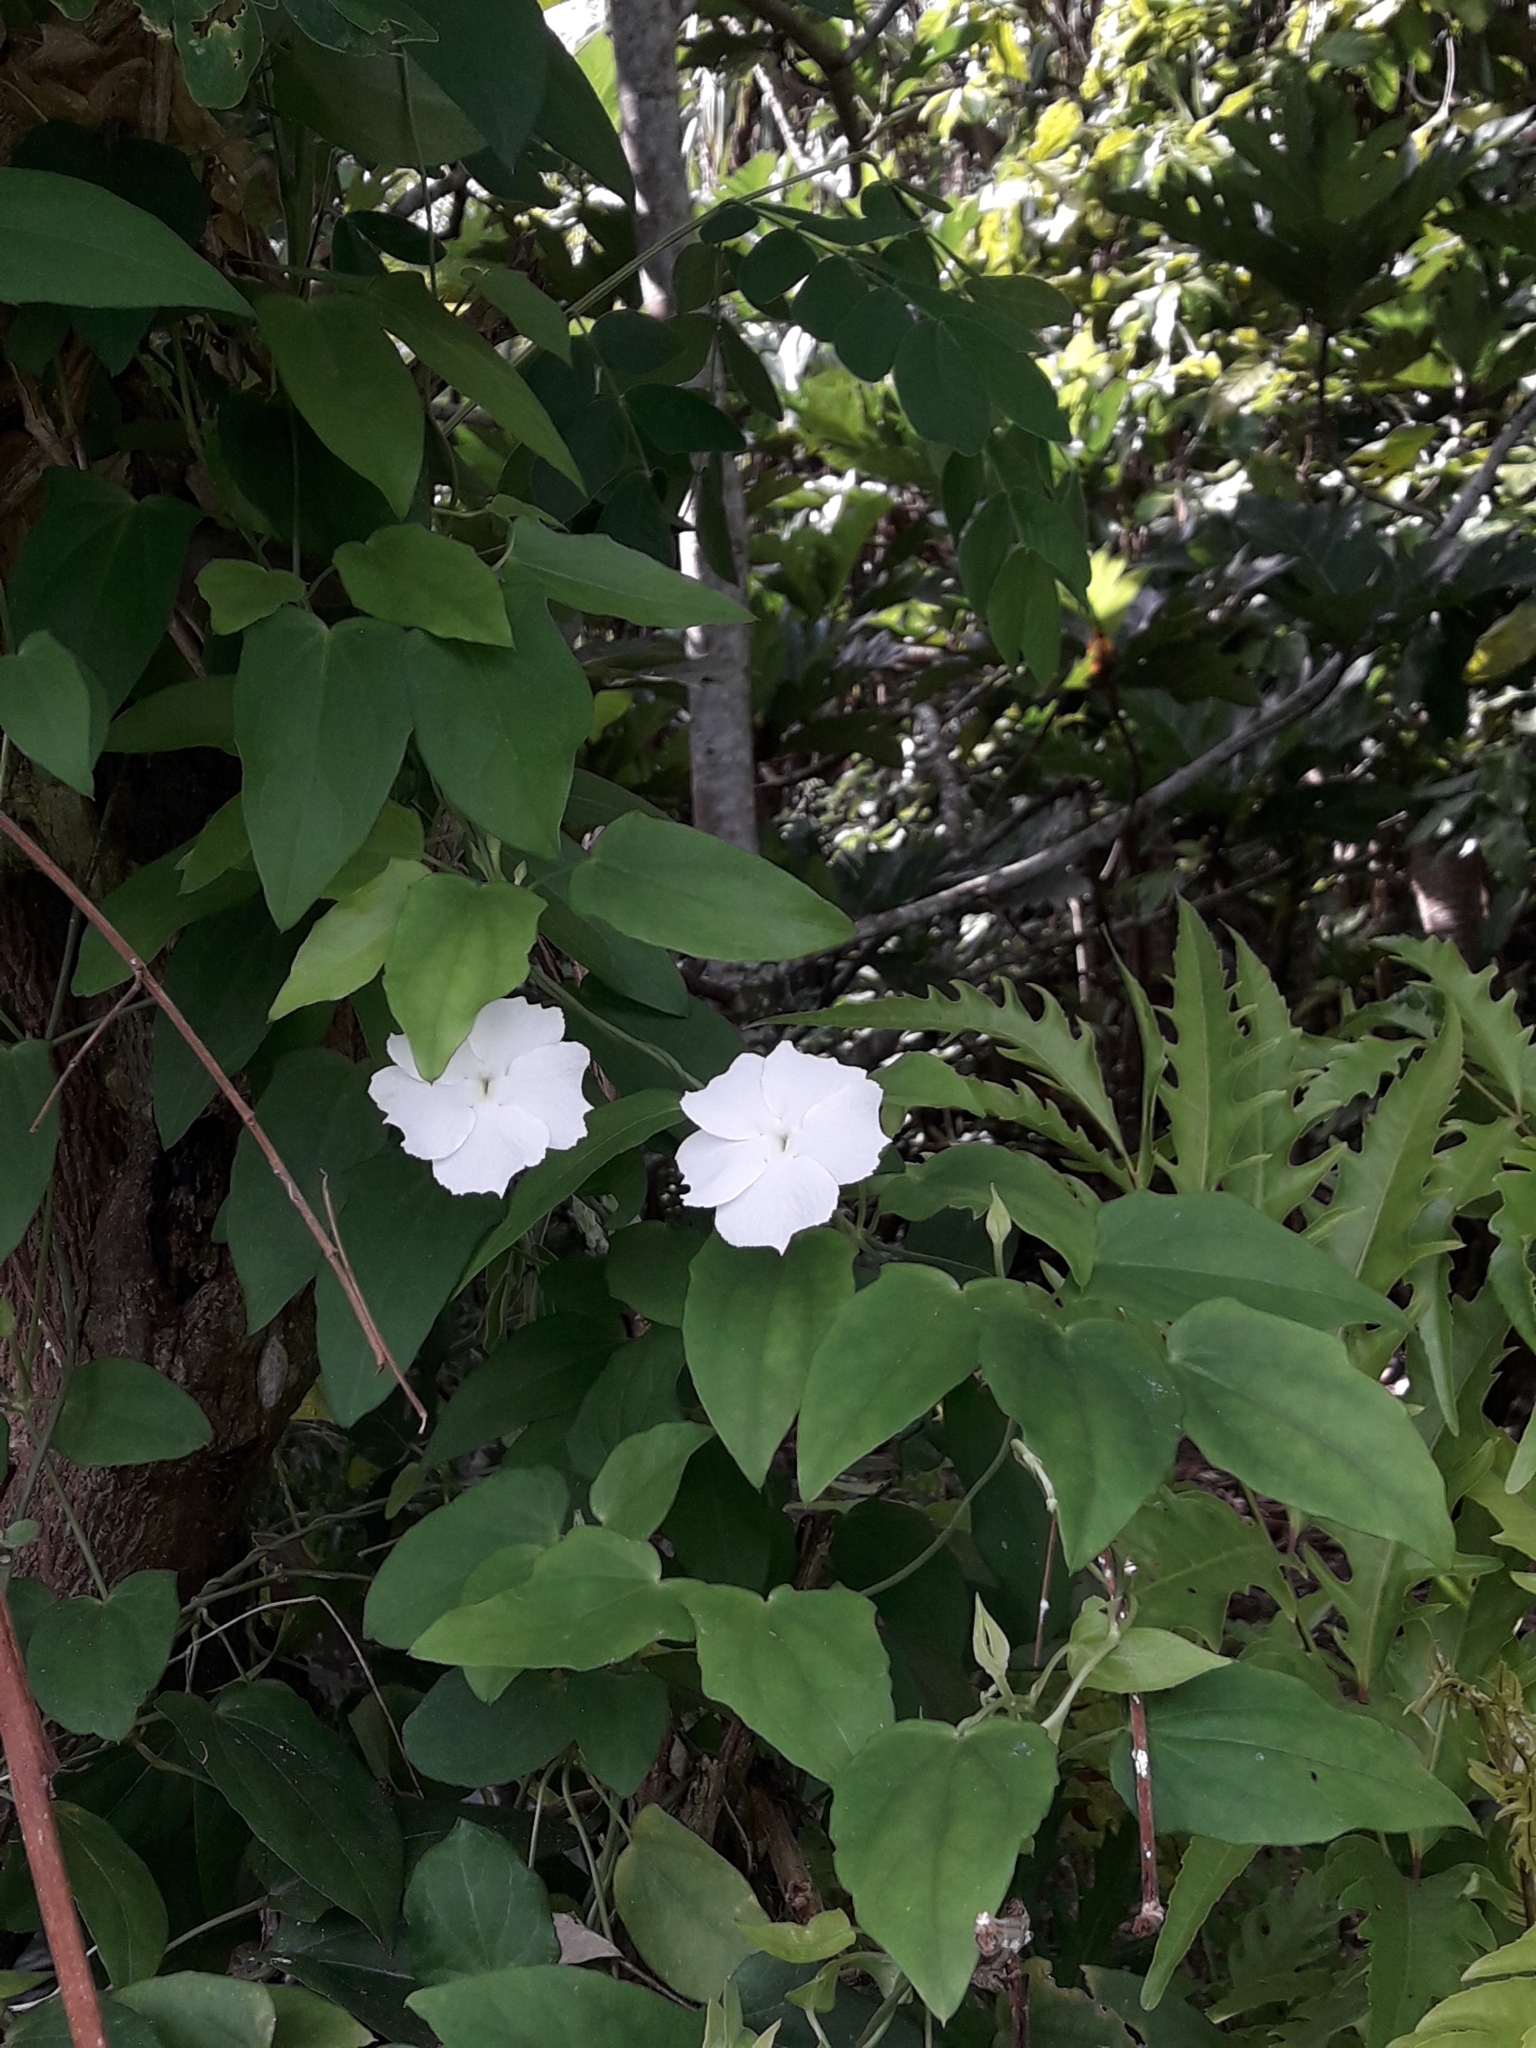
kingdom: Plantae
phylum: Tracheophyta
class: Magnoliopsida
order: Lamiales
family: Acanthaceae
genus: Thunbergia
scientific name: Thunbergia fragrans
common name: Whitelady
